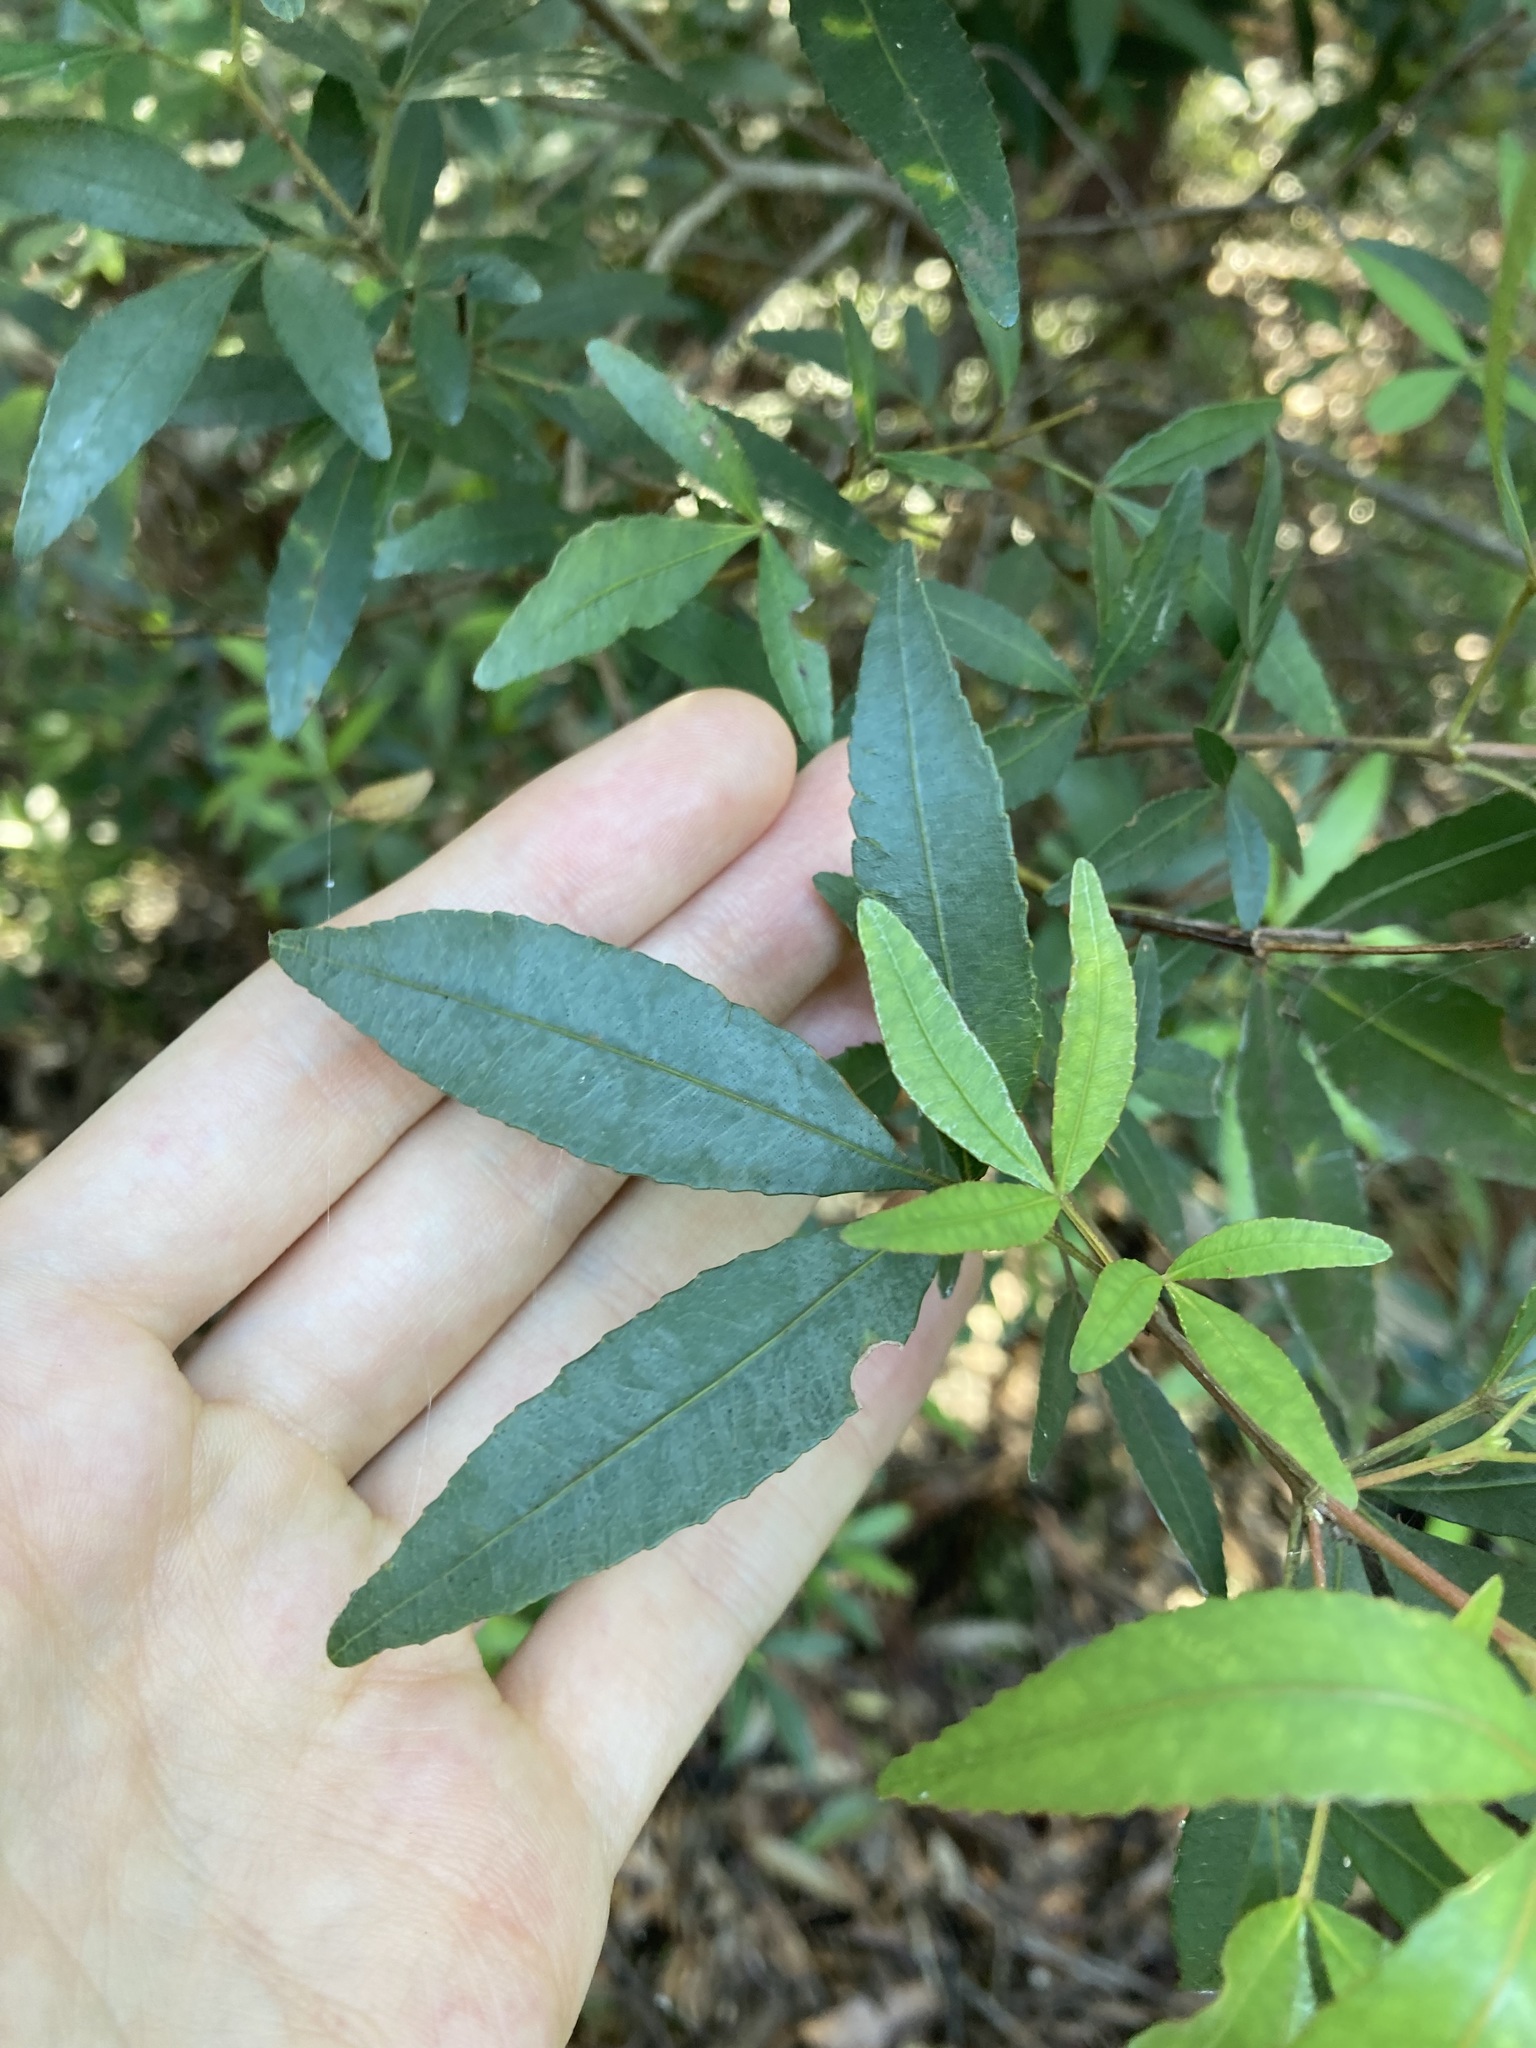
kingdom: Plantae
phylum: Tracheophyta
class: Magnoliopsida
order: Oxalidales
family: Cunoniaceae
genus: Ceratopetalum
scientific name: Ceratopetalum gummiferum
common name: Christmasbush
